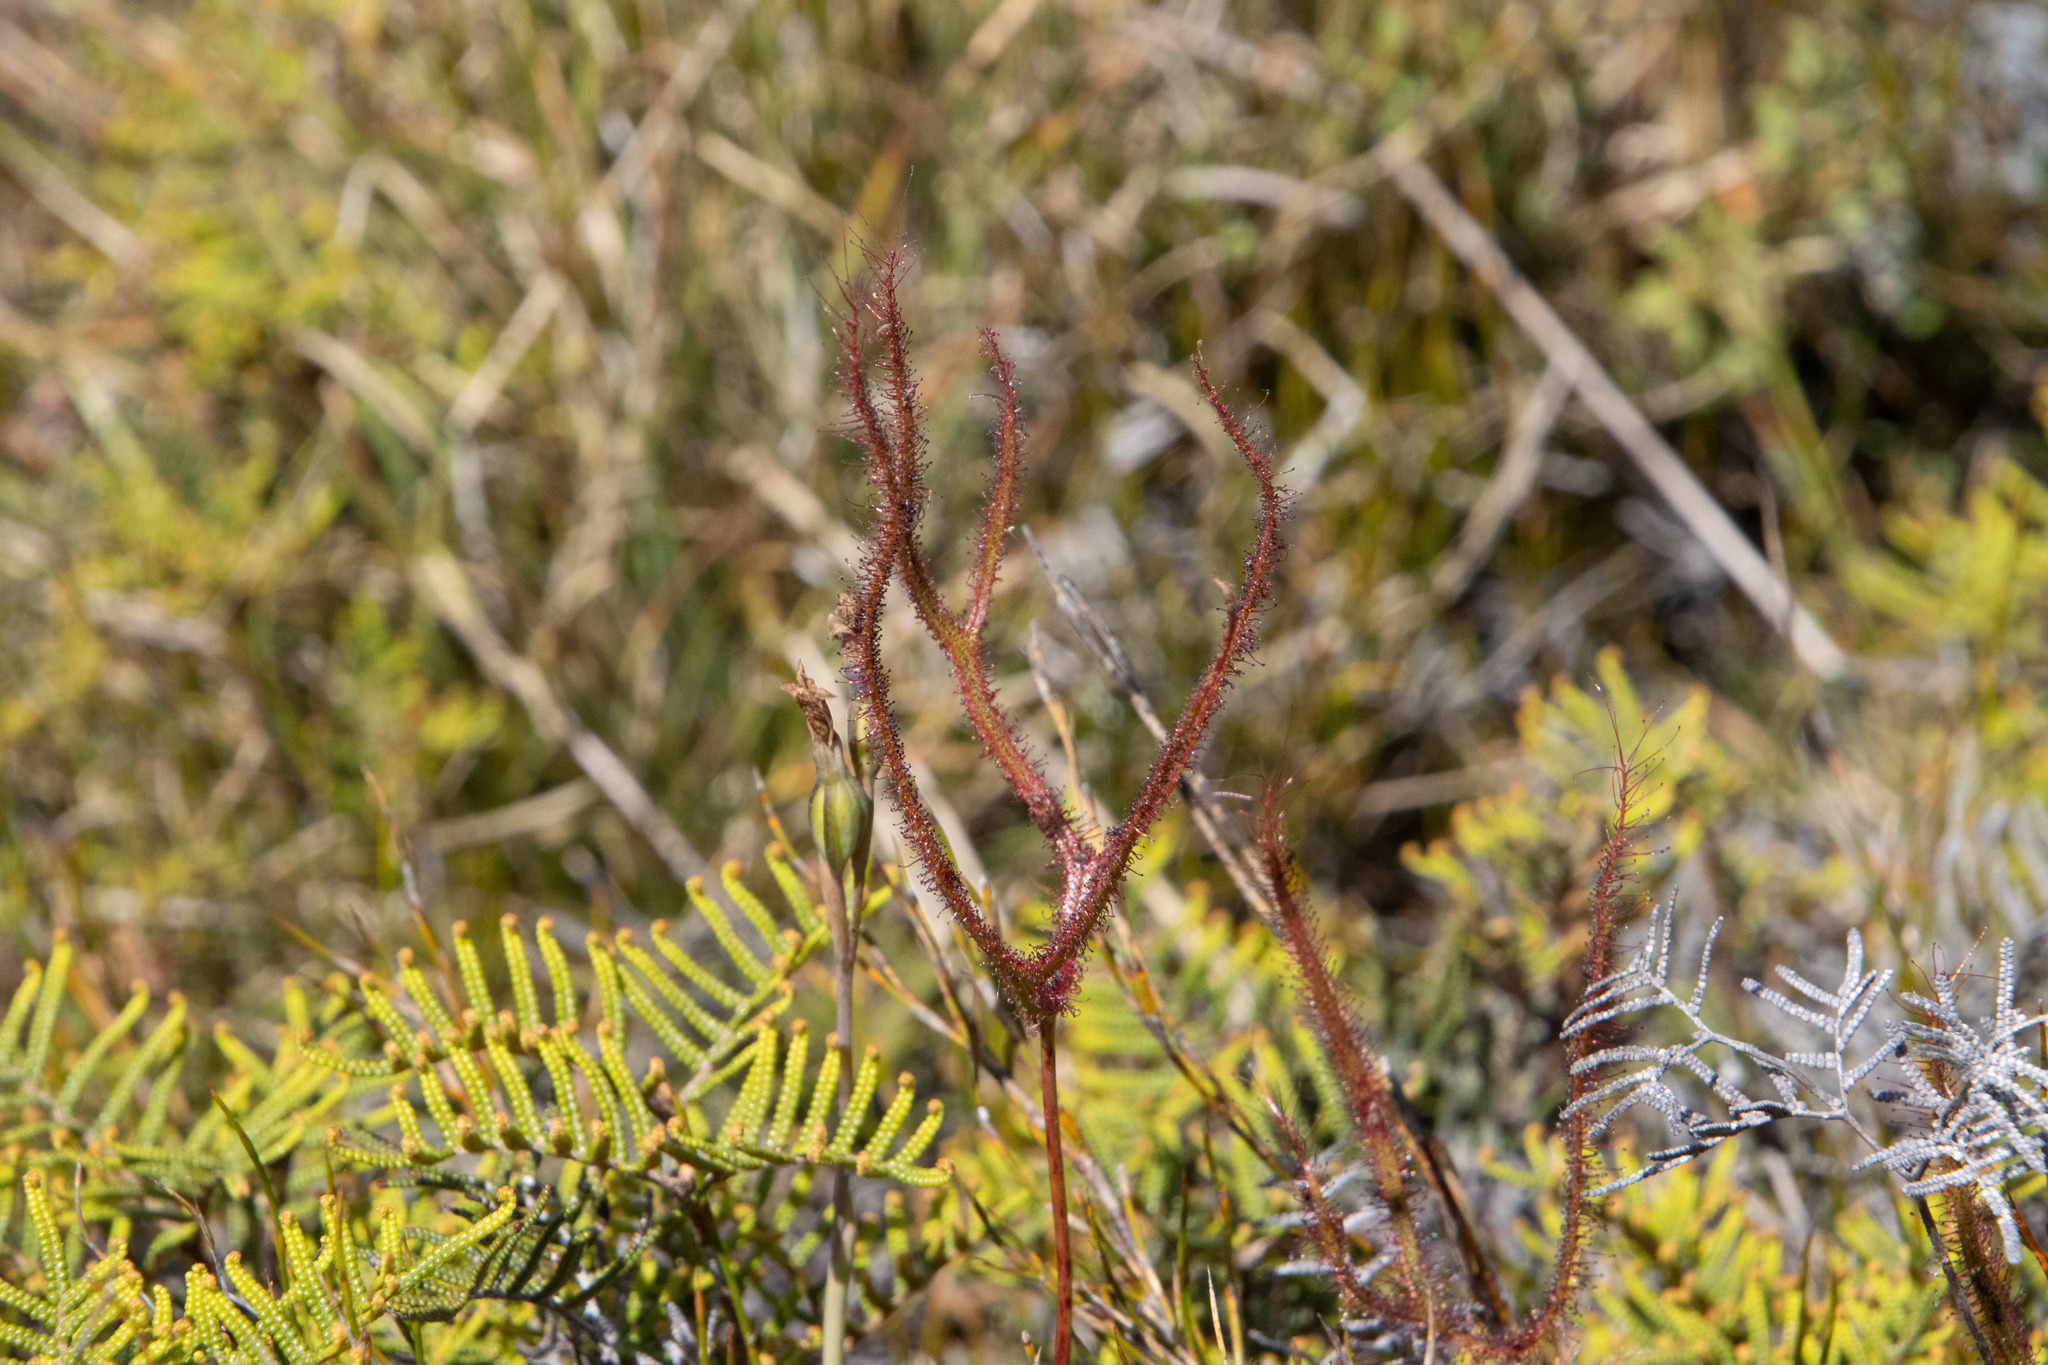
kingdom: Plantae
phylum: Tracheophyta
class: Magnoliopsida
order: Caryophyllales
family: Droseraceae
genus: Drosera
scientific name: Drosera binata
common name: Forked sundew
